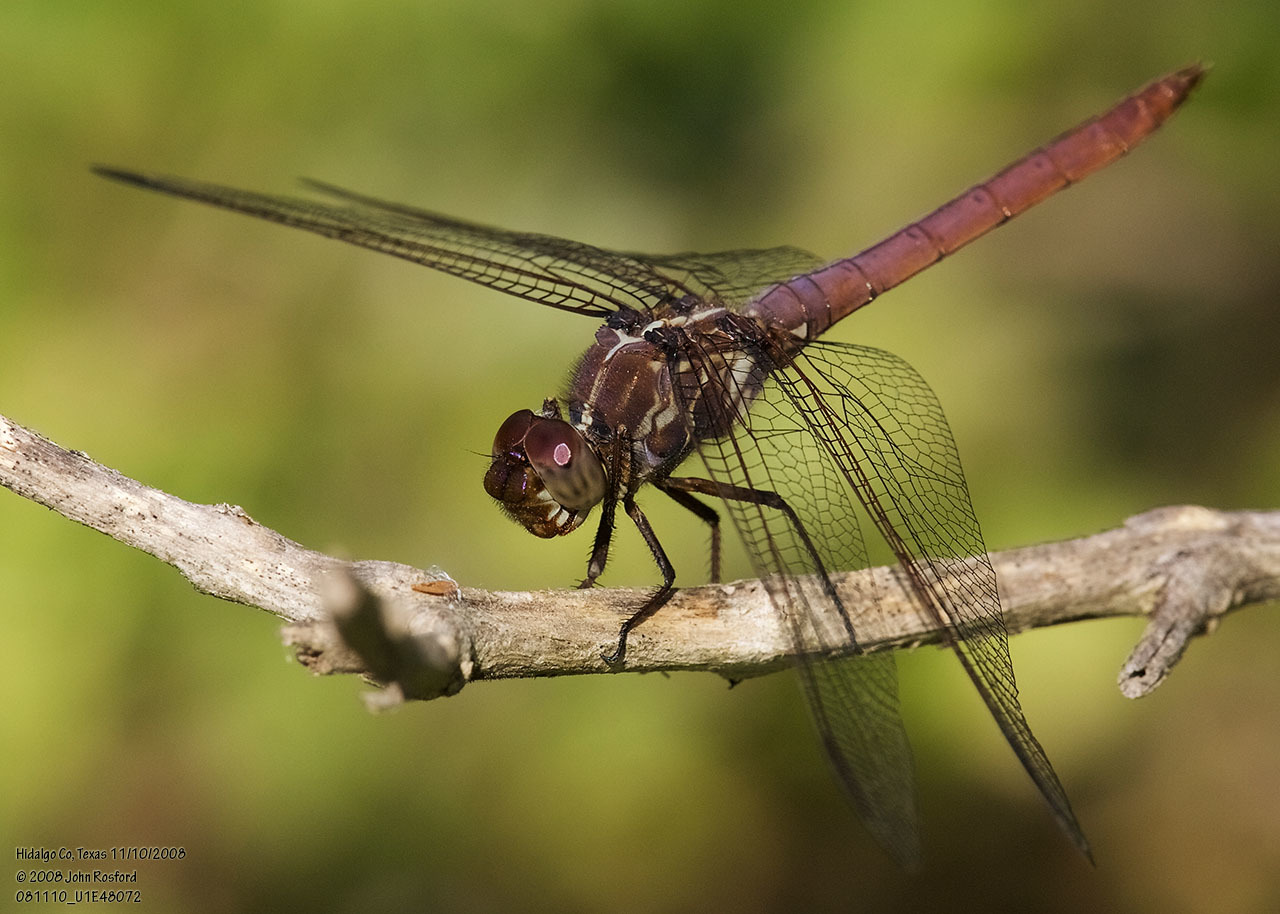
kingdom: Animalia
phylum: Arthropoda
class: Insecta
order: Odonata
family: Libellulidae
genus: Orthemis
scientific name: Orthemis ferruginea
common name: Roseate skimmer
